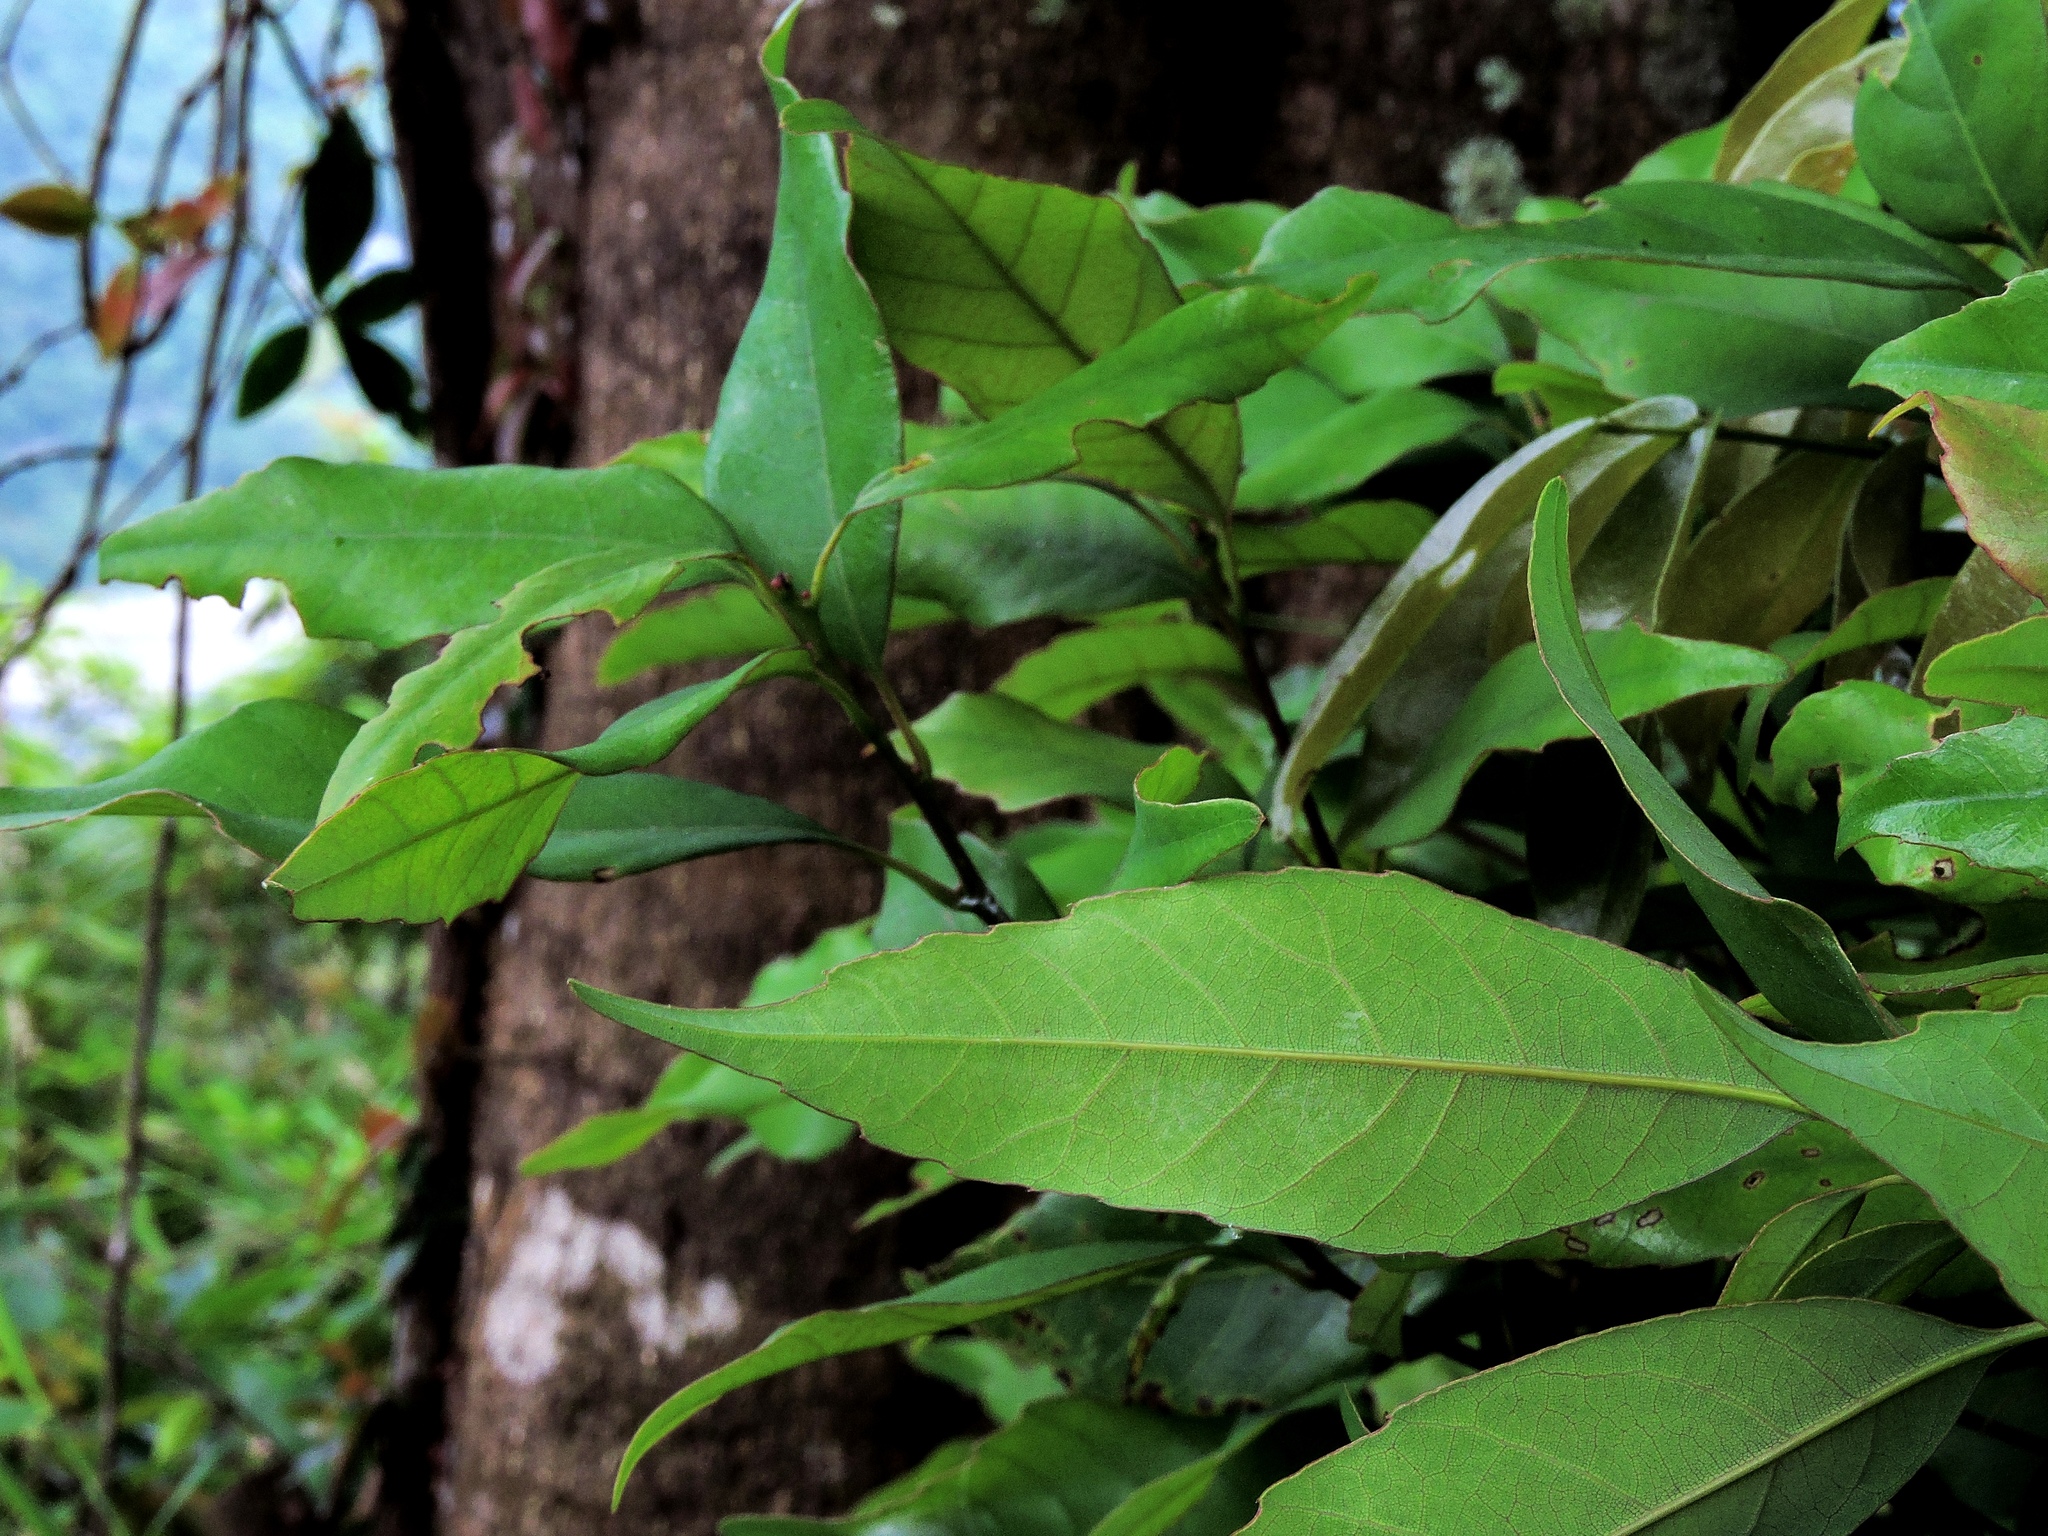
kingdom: Plantae
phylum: Tracheophyta
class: Magnoliopsida
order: Fagales
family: Fagaceae
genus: Quercus
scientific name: Quercus glauca
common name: Ring-cup oak
